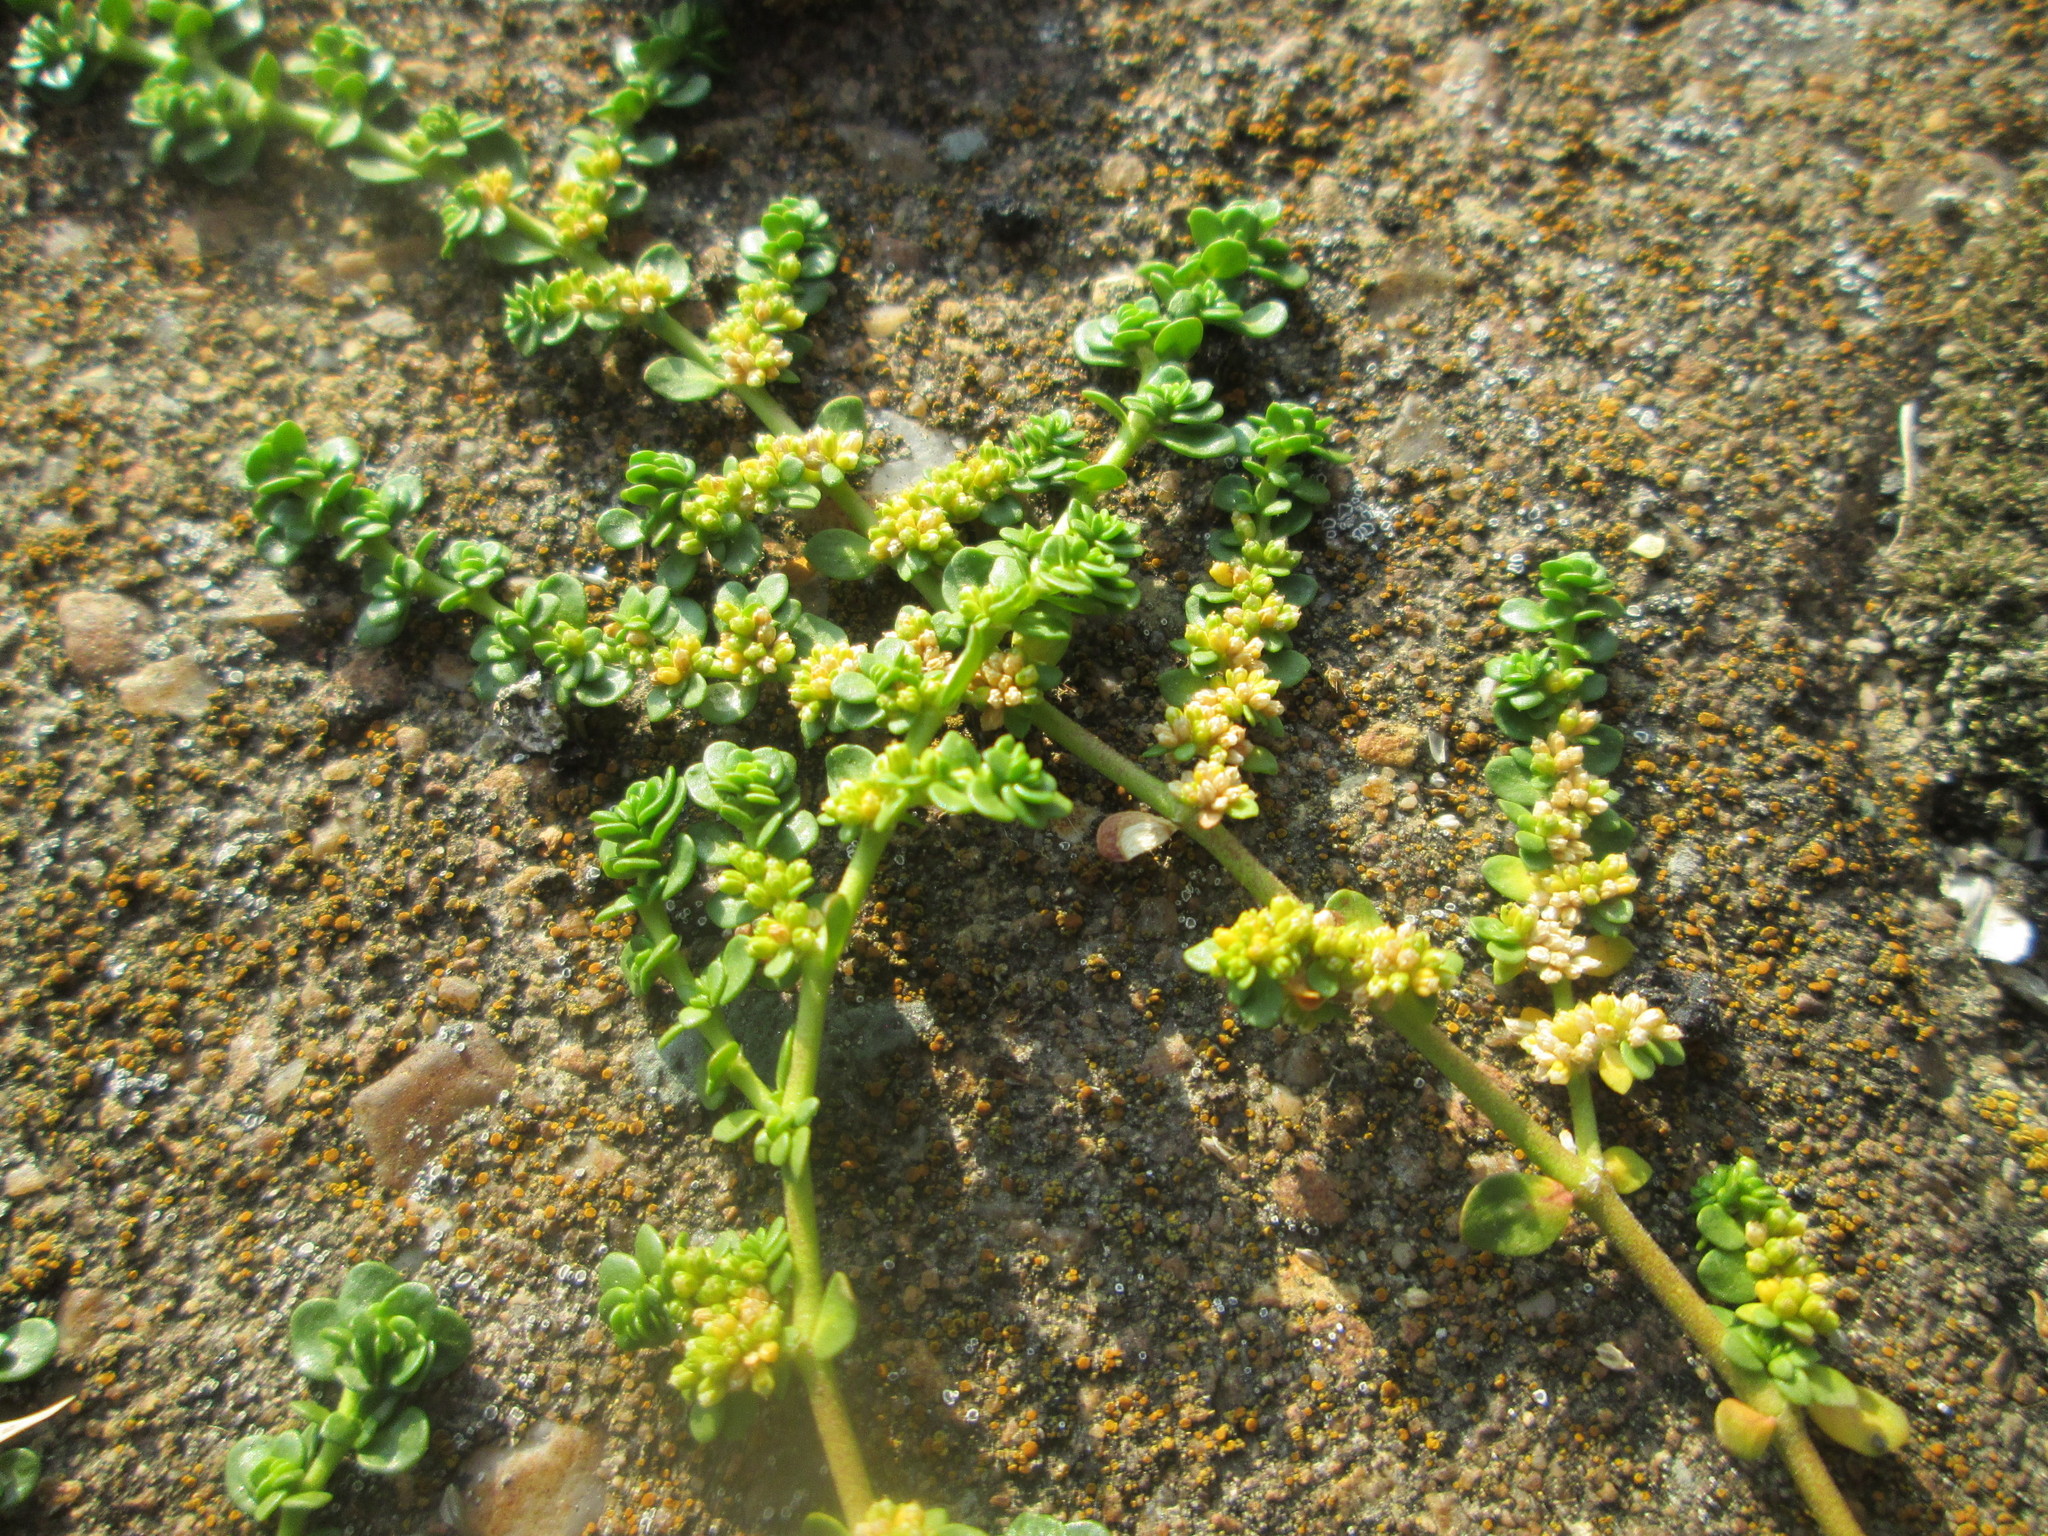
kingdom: Plantae
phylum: Tracheophyta
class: Magnoliopsida
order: Caryophyllales
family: Caryophyllaceae
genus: Herniaria
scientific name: Herniaria glabra
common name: Smooth rupturewort
